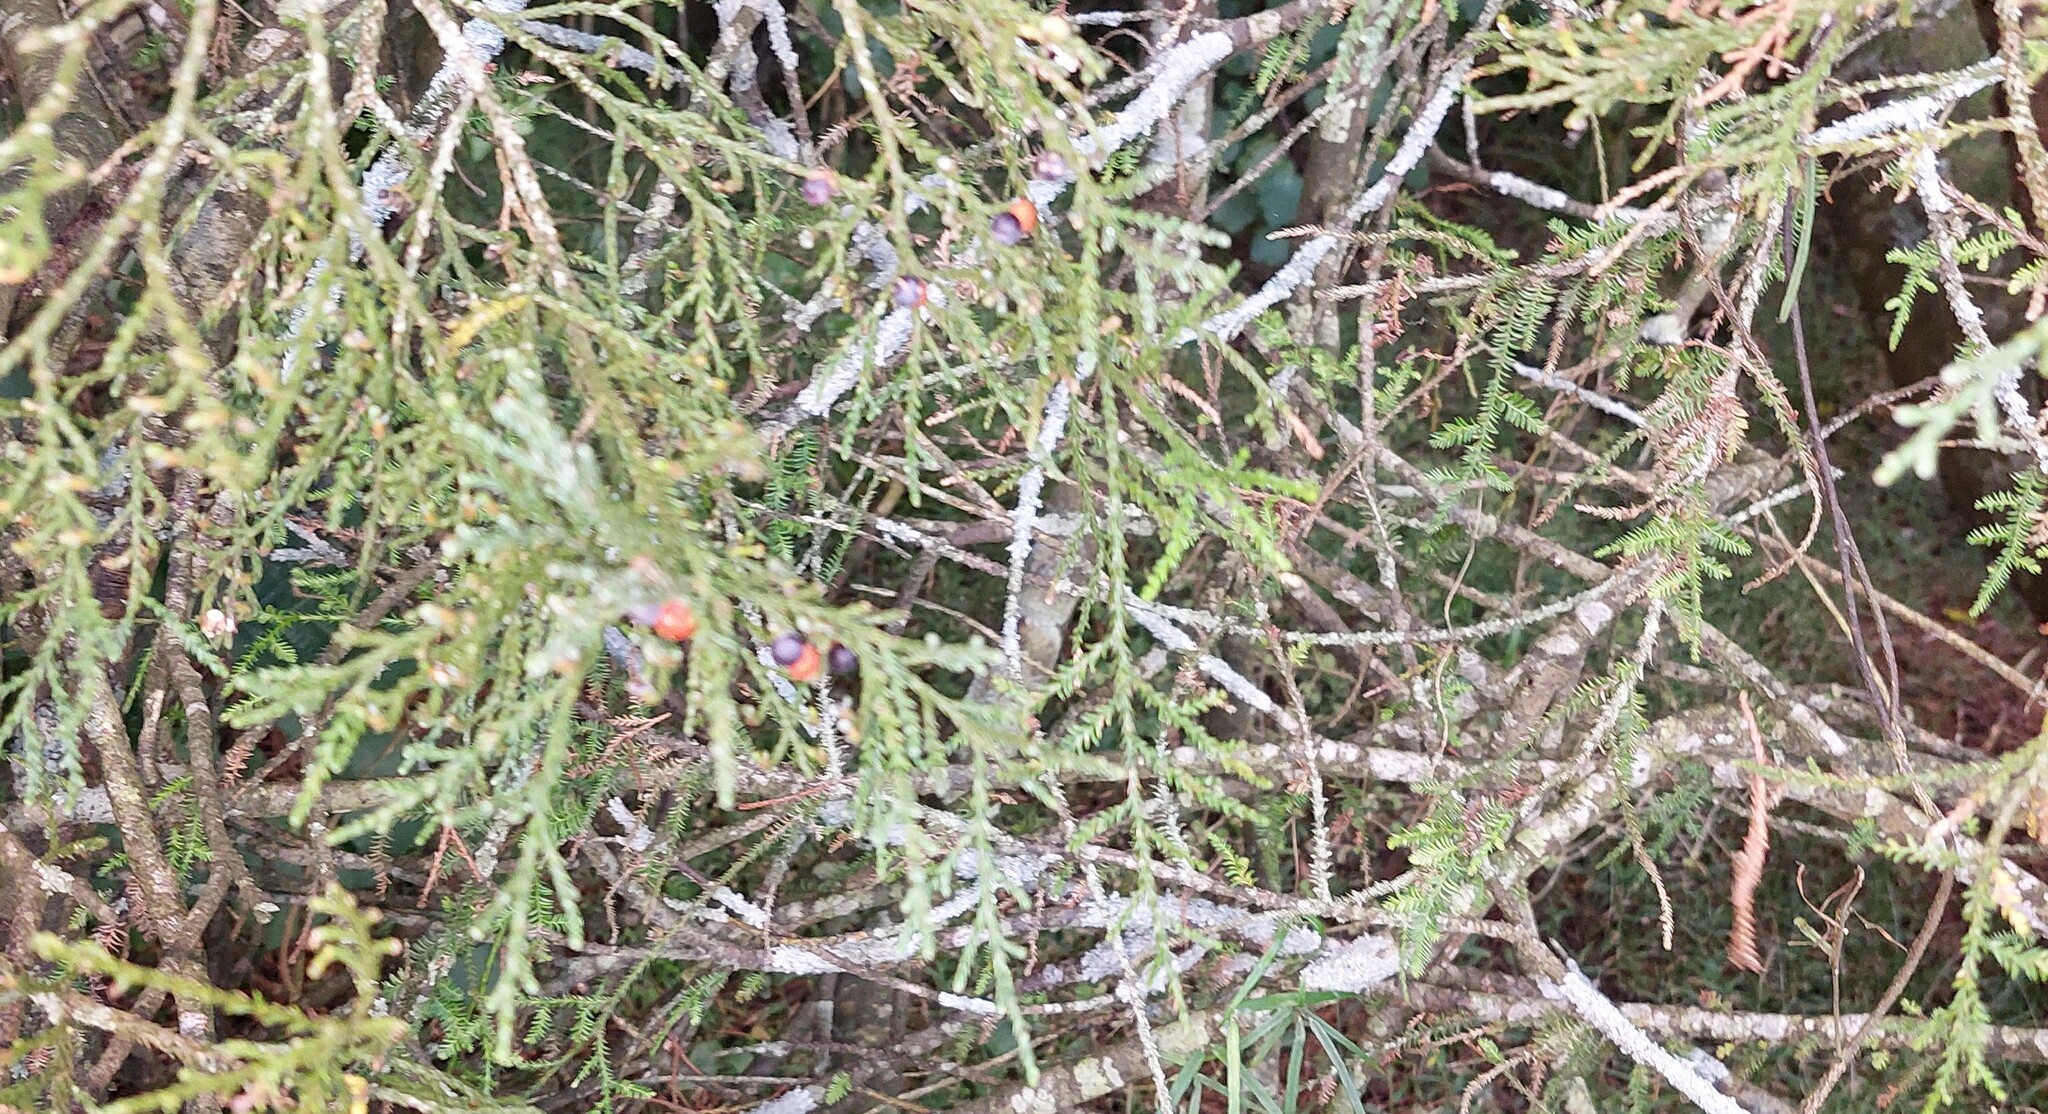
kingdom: Plantae
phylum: Tracheophyta
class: Pinopsida
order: Pinales
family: Podocarpaceae
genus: Dacrycarpus
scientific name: Dacrycarpus dacrydioides
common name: White pine
